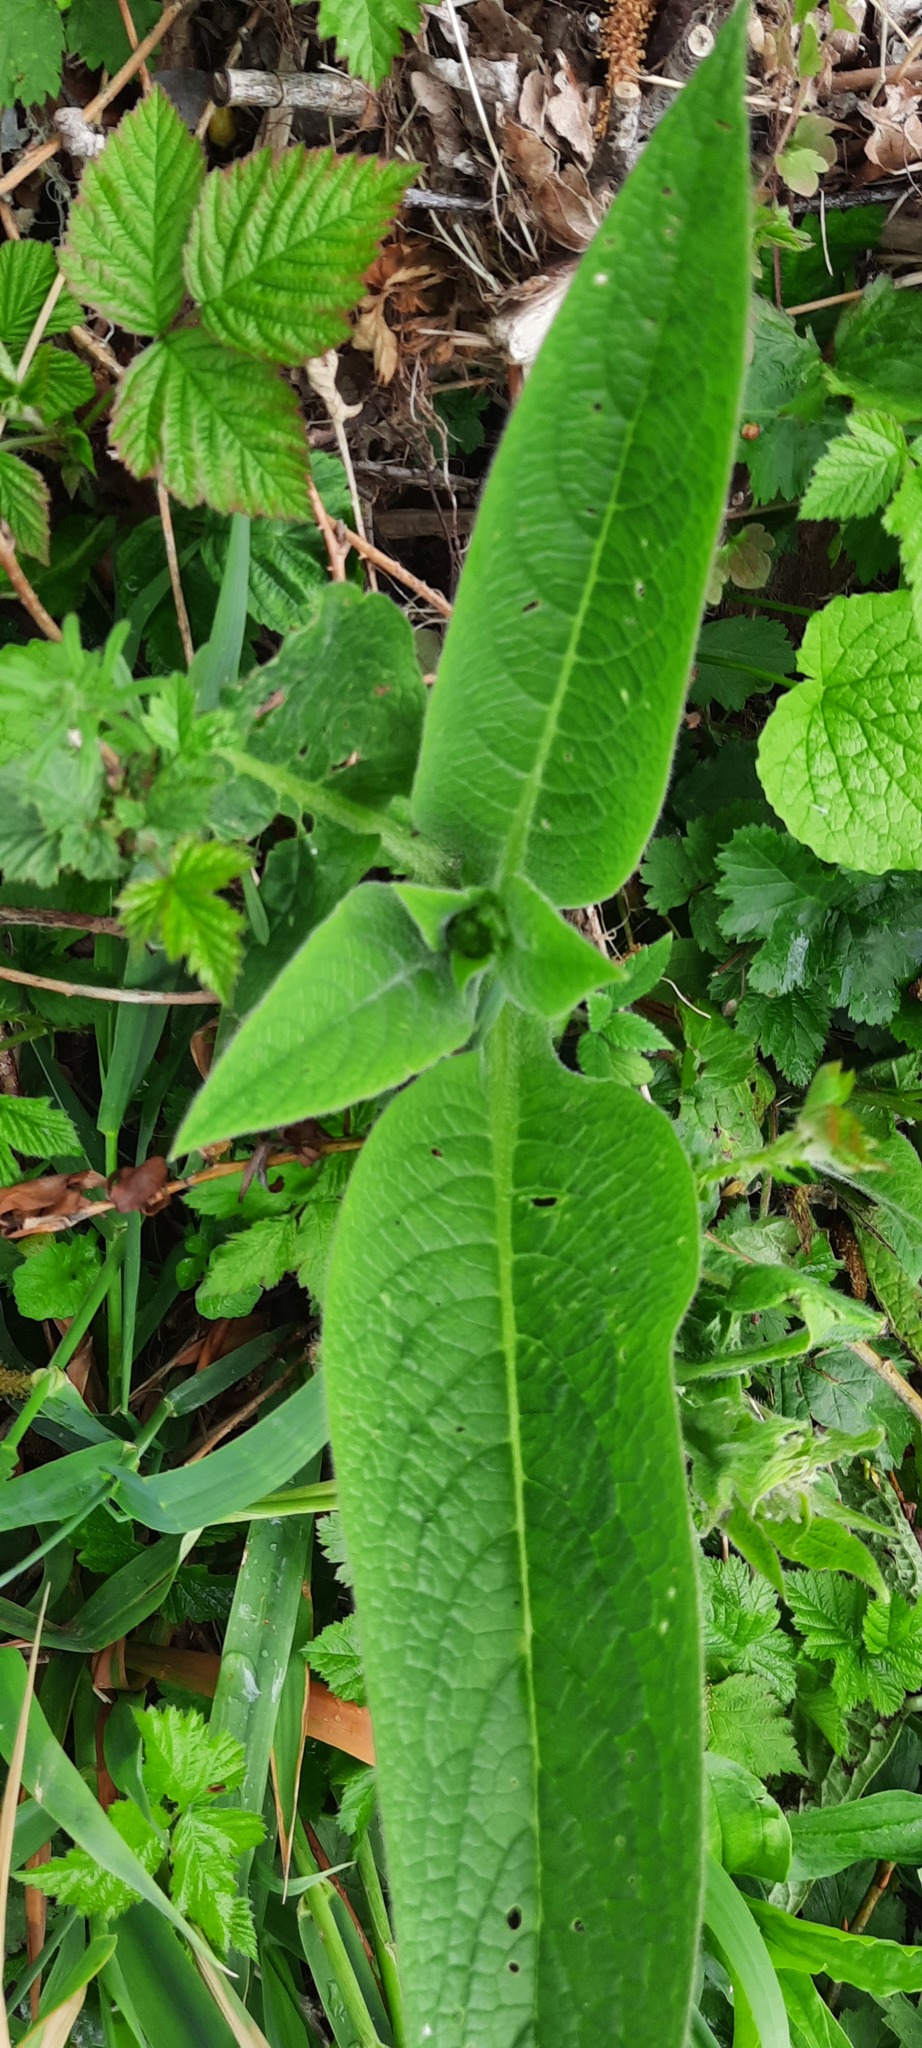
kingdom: Plantae
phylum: Tracheophyta
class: Magnoliopsida
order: Boraginales
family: Boraginaceae
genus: Symphytum
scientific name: Symphytum officinale
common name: Common comfrey
